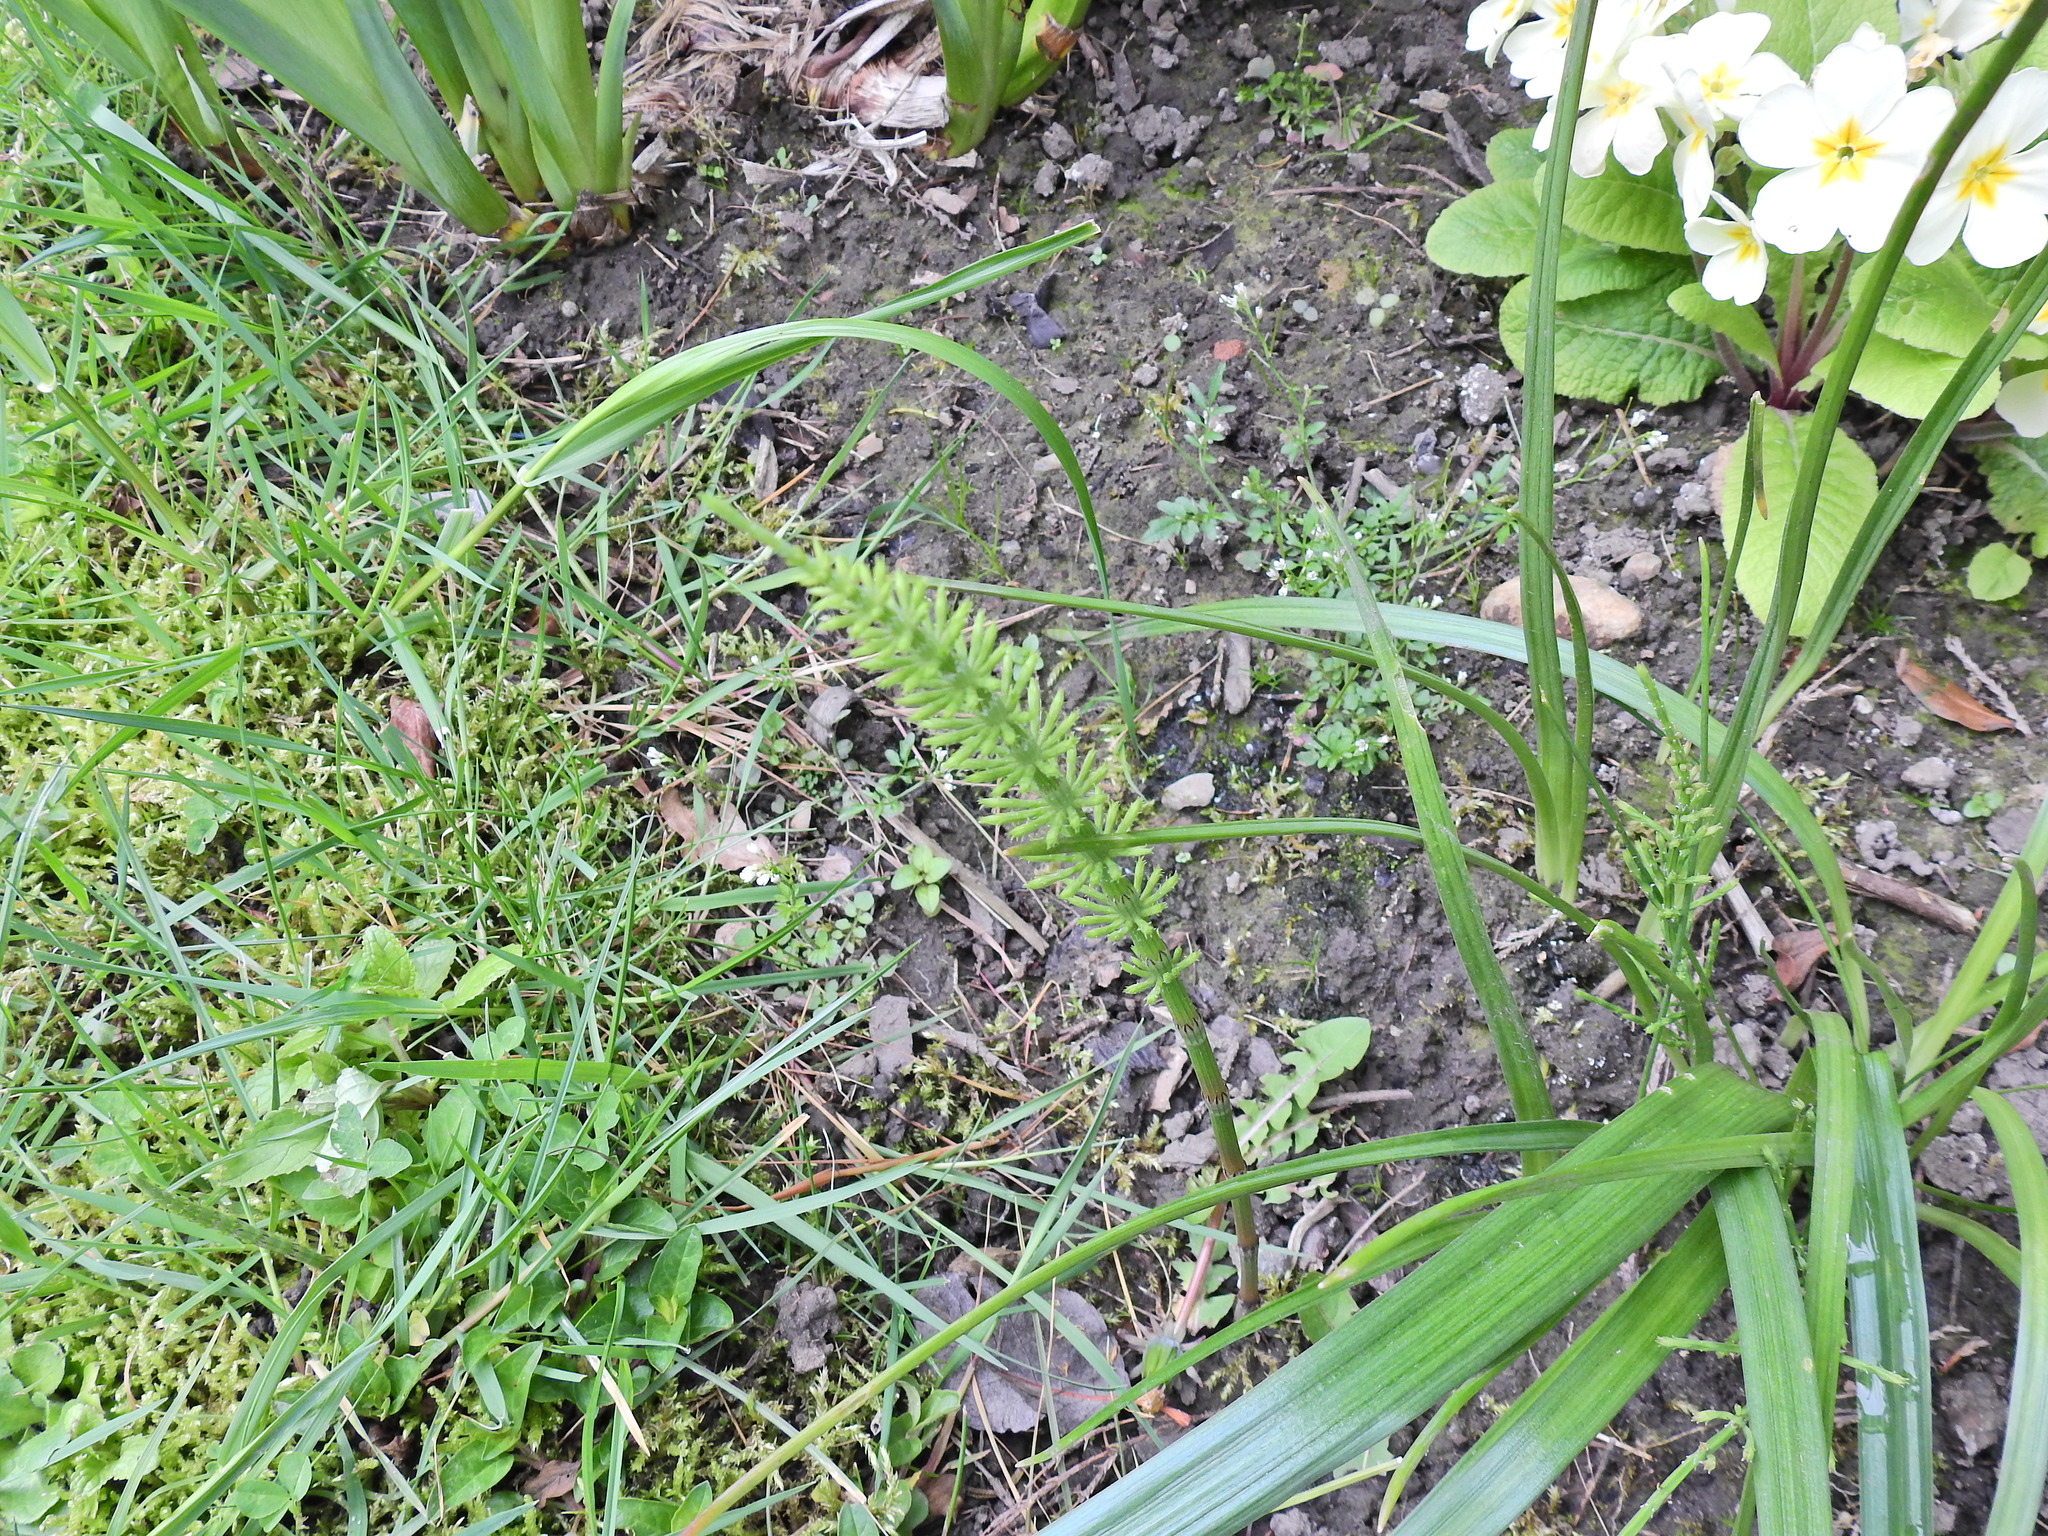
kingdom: Plantae
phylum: Tracheophyta
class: Polypodiopsida
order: Equisetales
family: Equisetaceae
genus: Equisetum
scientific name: Equisetum arvense
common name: Field horsetail
